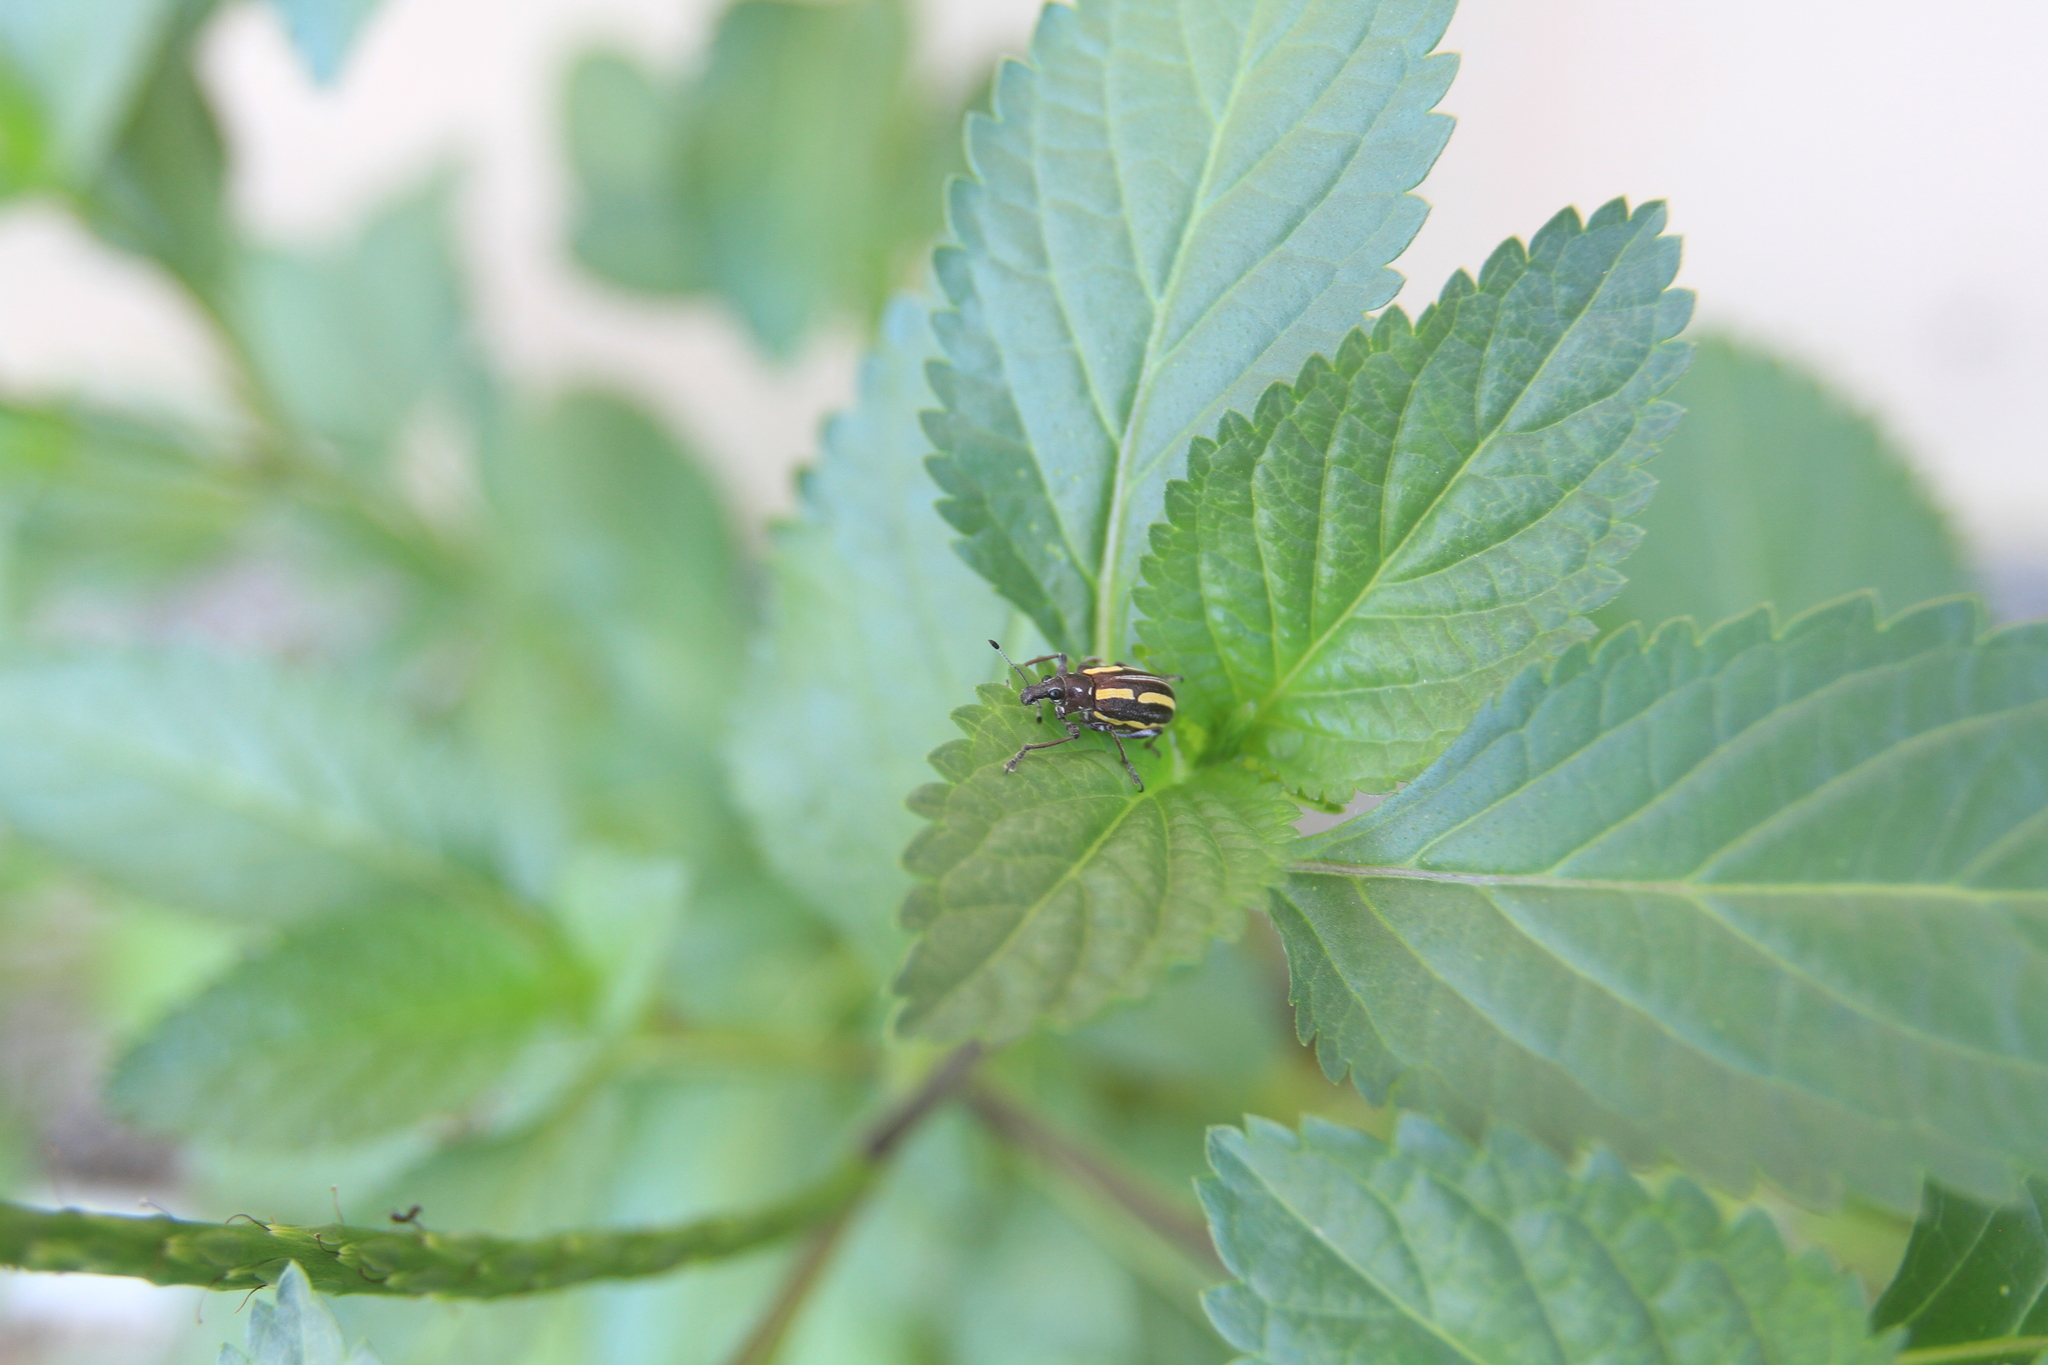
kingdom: Animalia
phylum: Arthropoda
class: Insecta
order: Coleoptera
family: Curculionidae
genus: Exophthalmus
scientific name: Exophthalmus quadrivittatus
